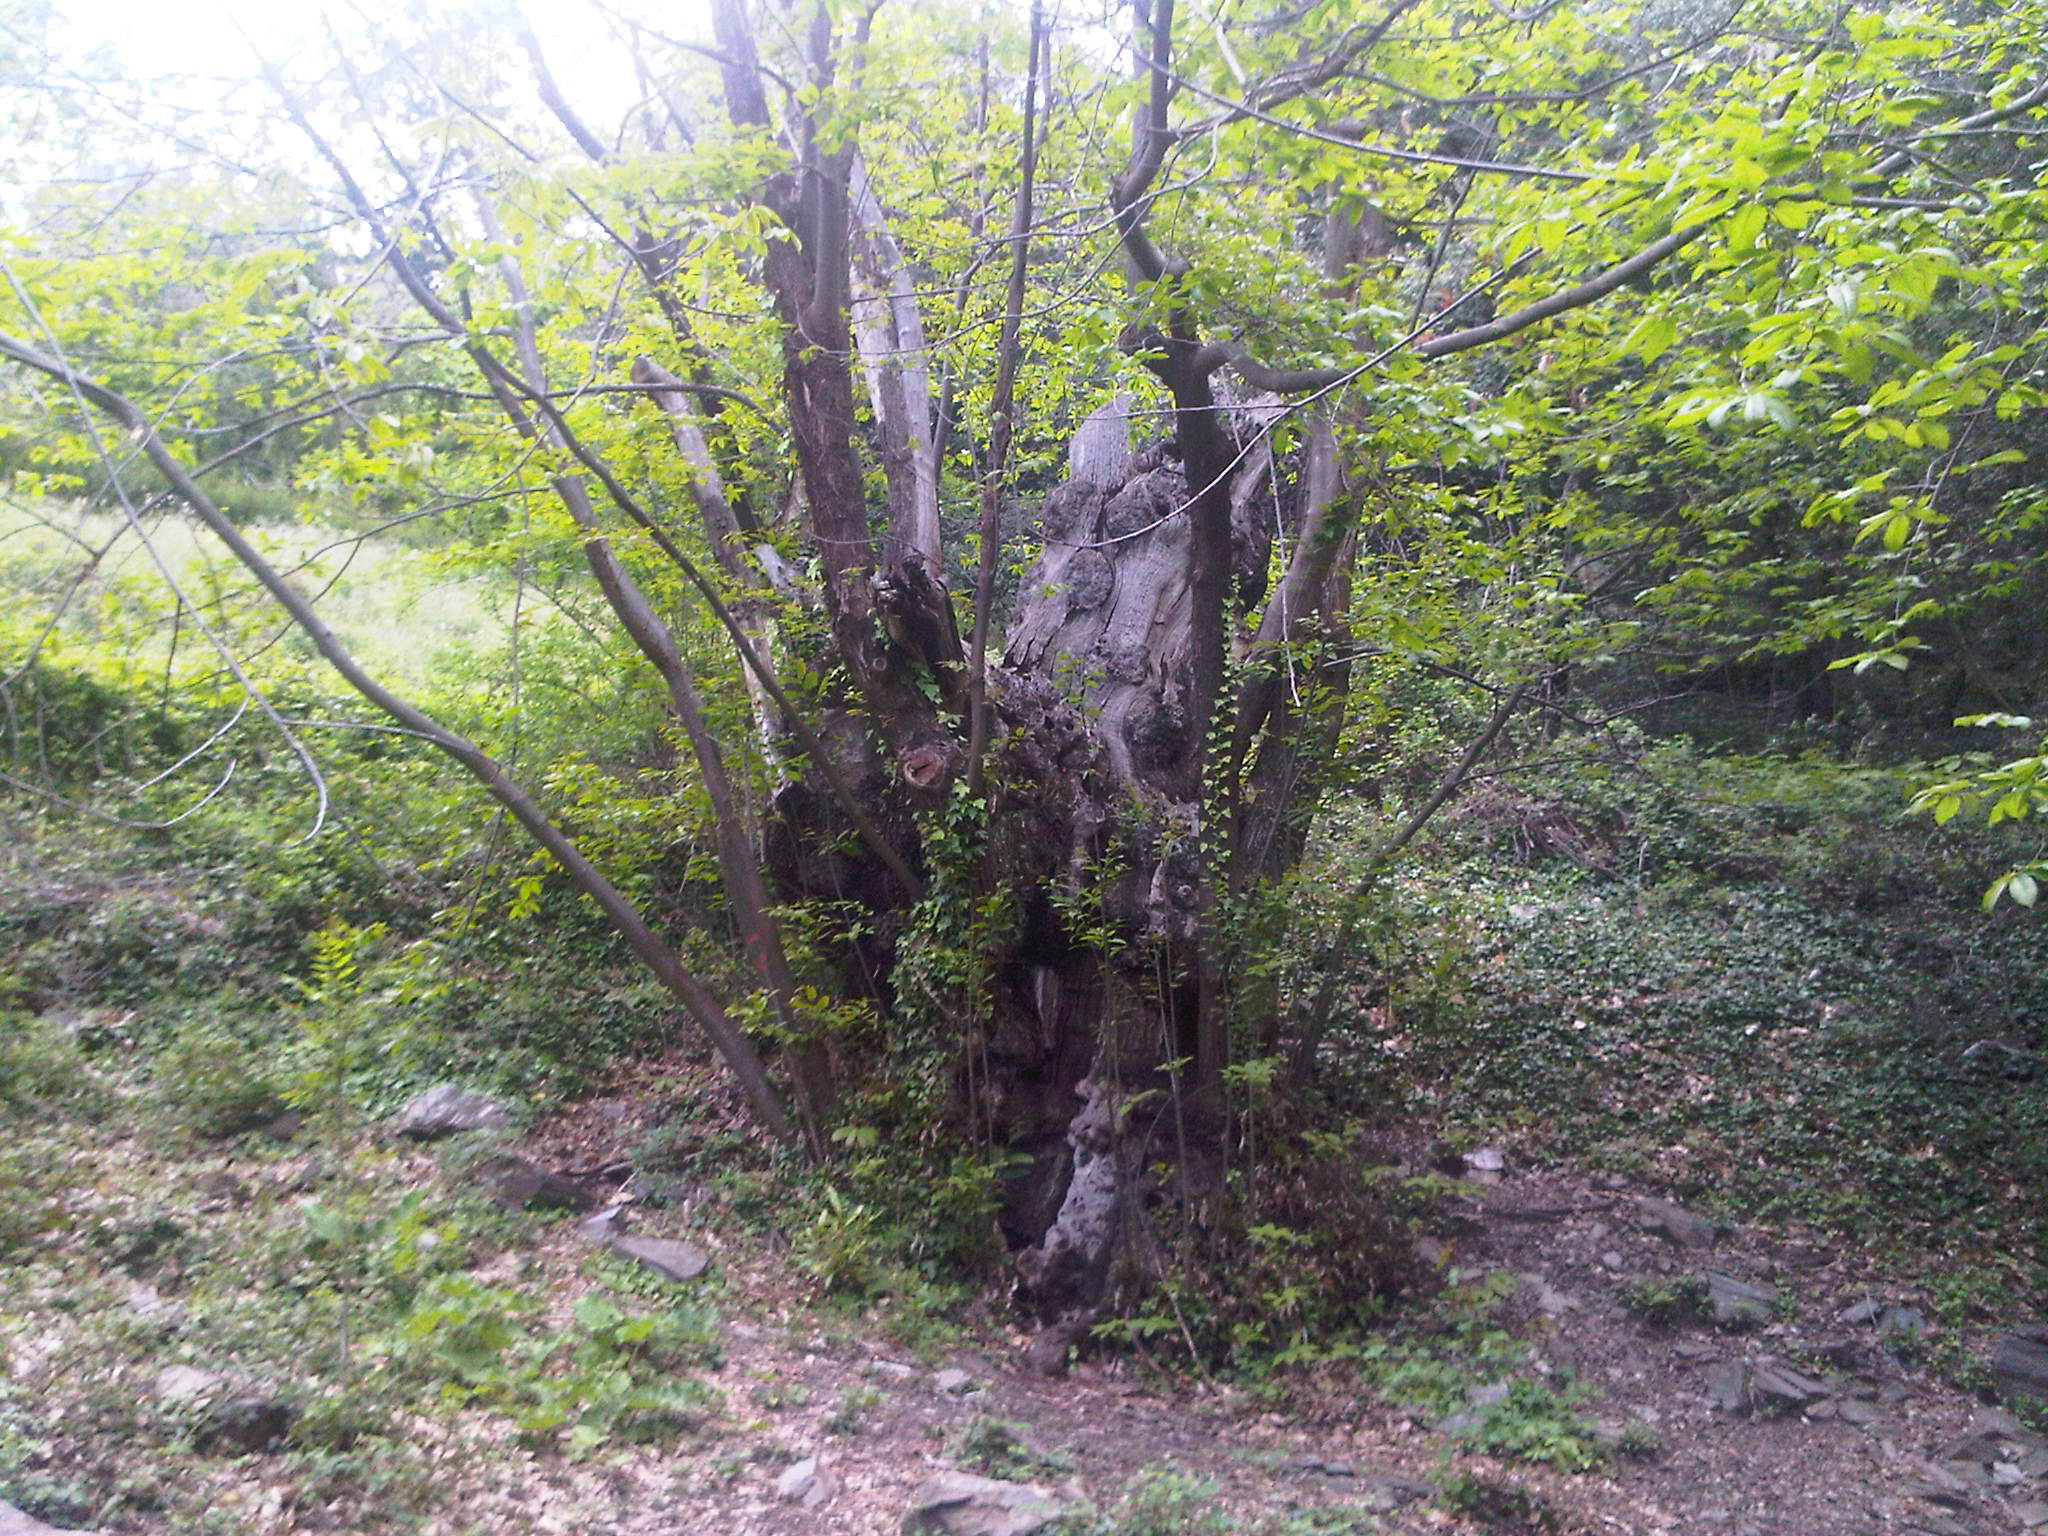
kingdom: Plantae
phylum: Tracheophyta
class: Magnoliopsida
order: Fagales
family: Fagaceae
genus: Castanea
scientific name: Castanea sativa
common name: Sweet chestnut
